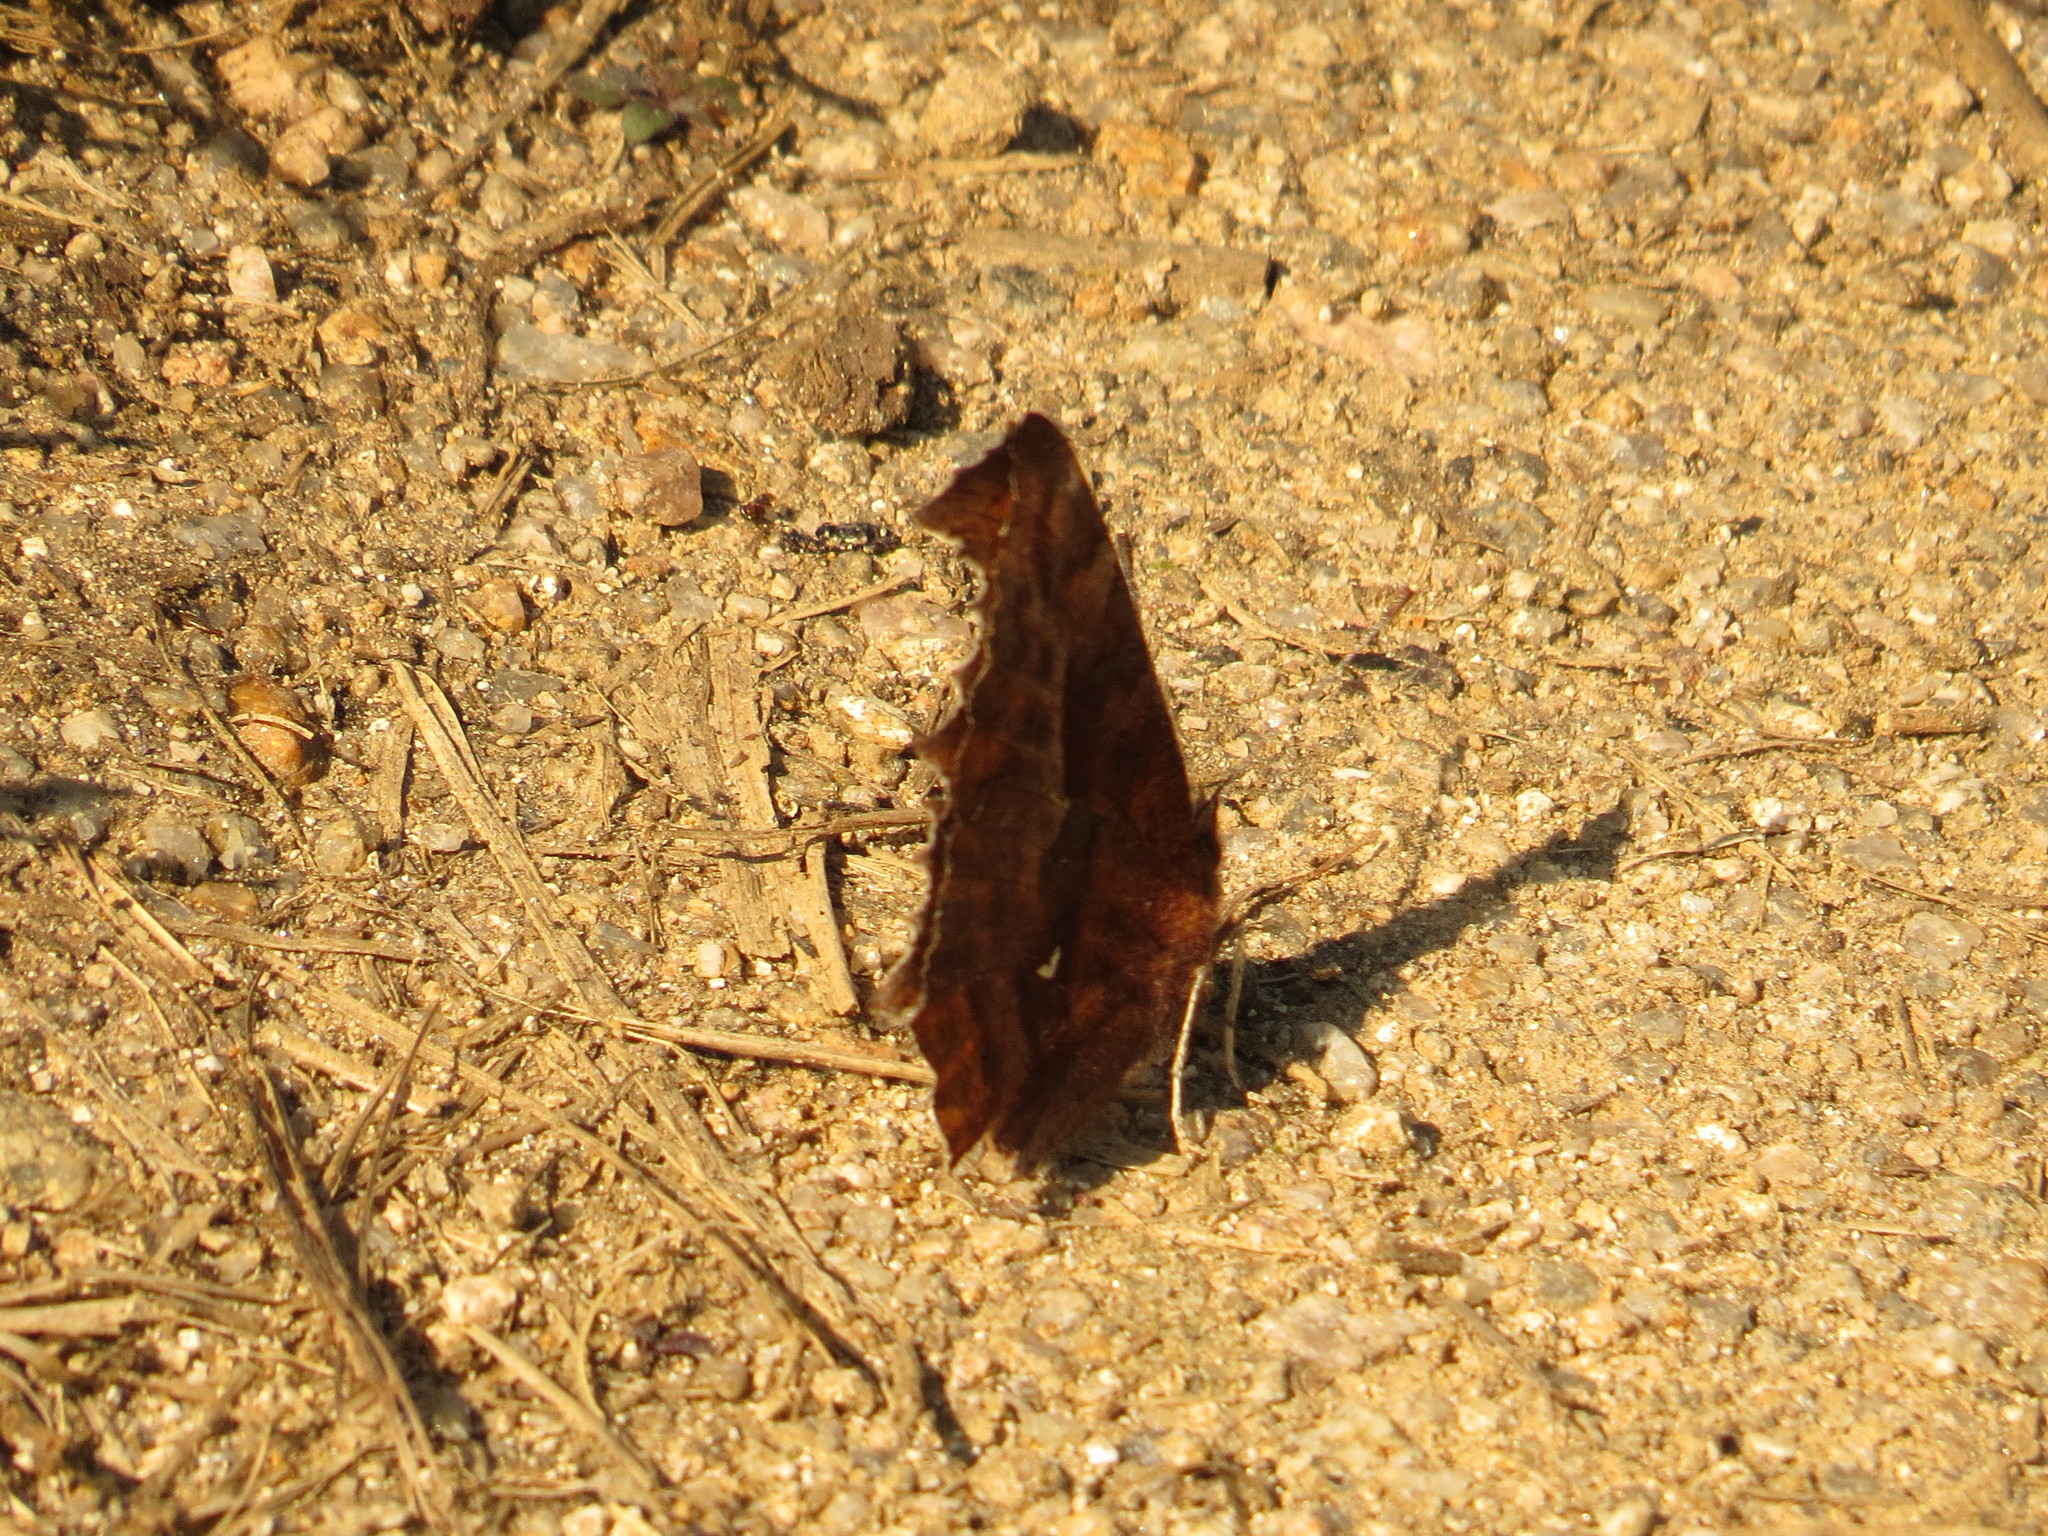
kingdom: Animalia
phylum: Arthropoda
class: Insecta
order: Lepidoptera
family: Nymphalidae
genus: Polygonia
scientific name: Polygonia c-aureum
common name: Asian comma
